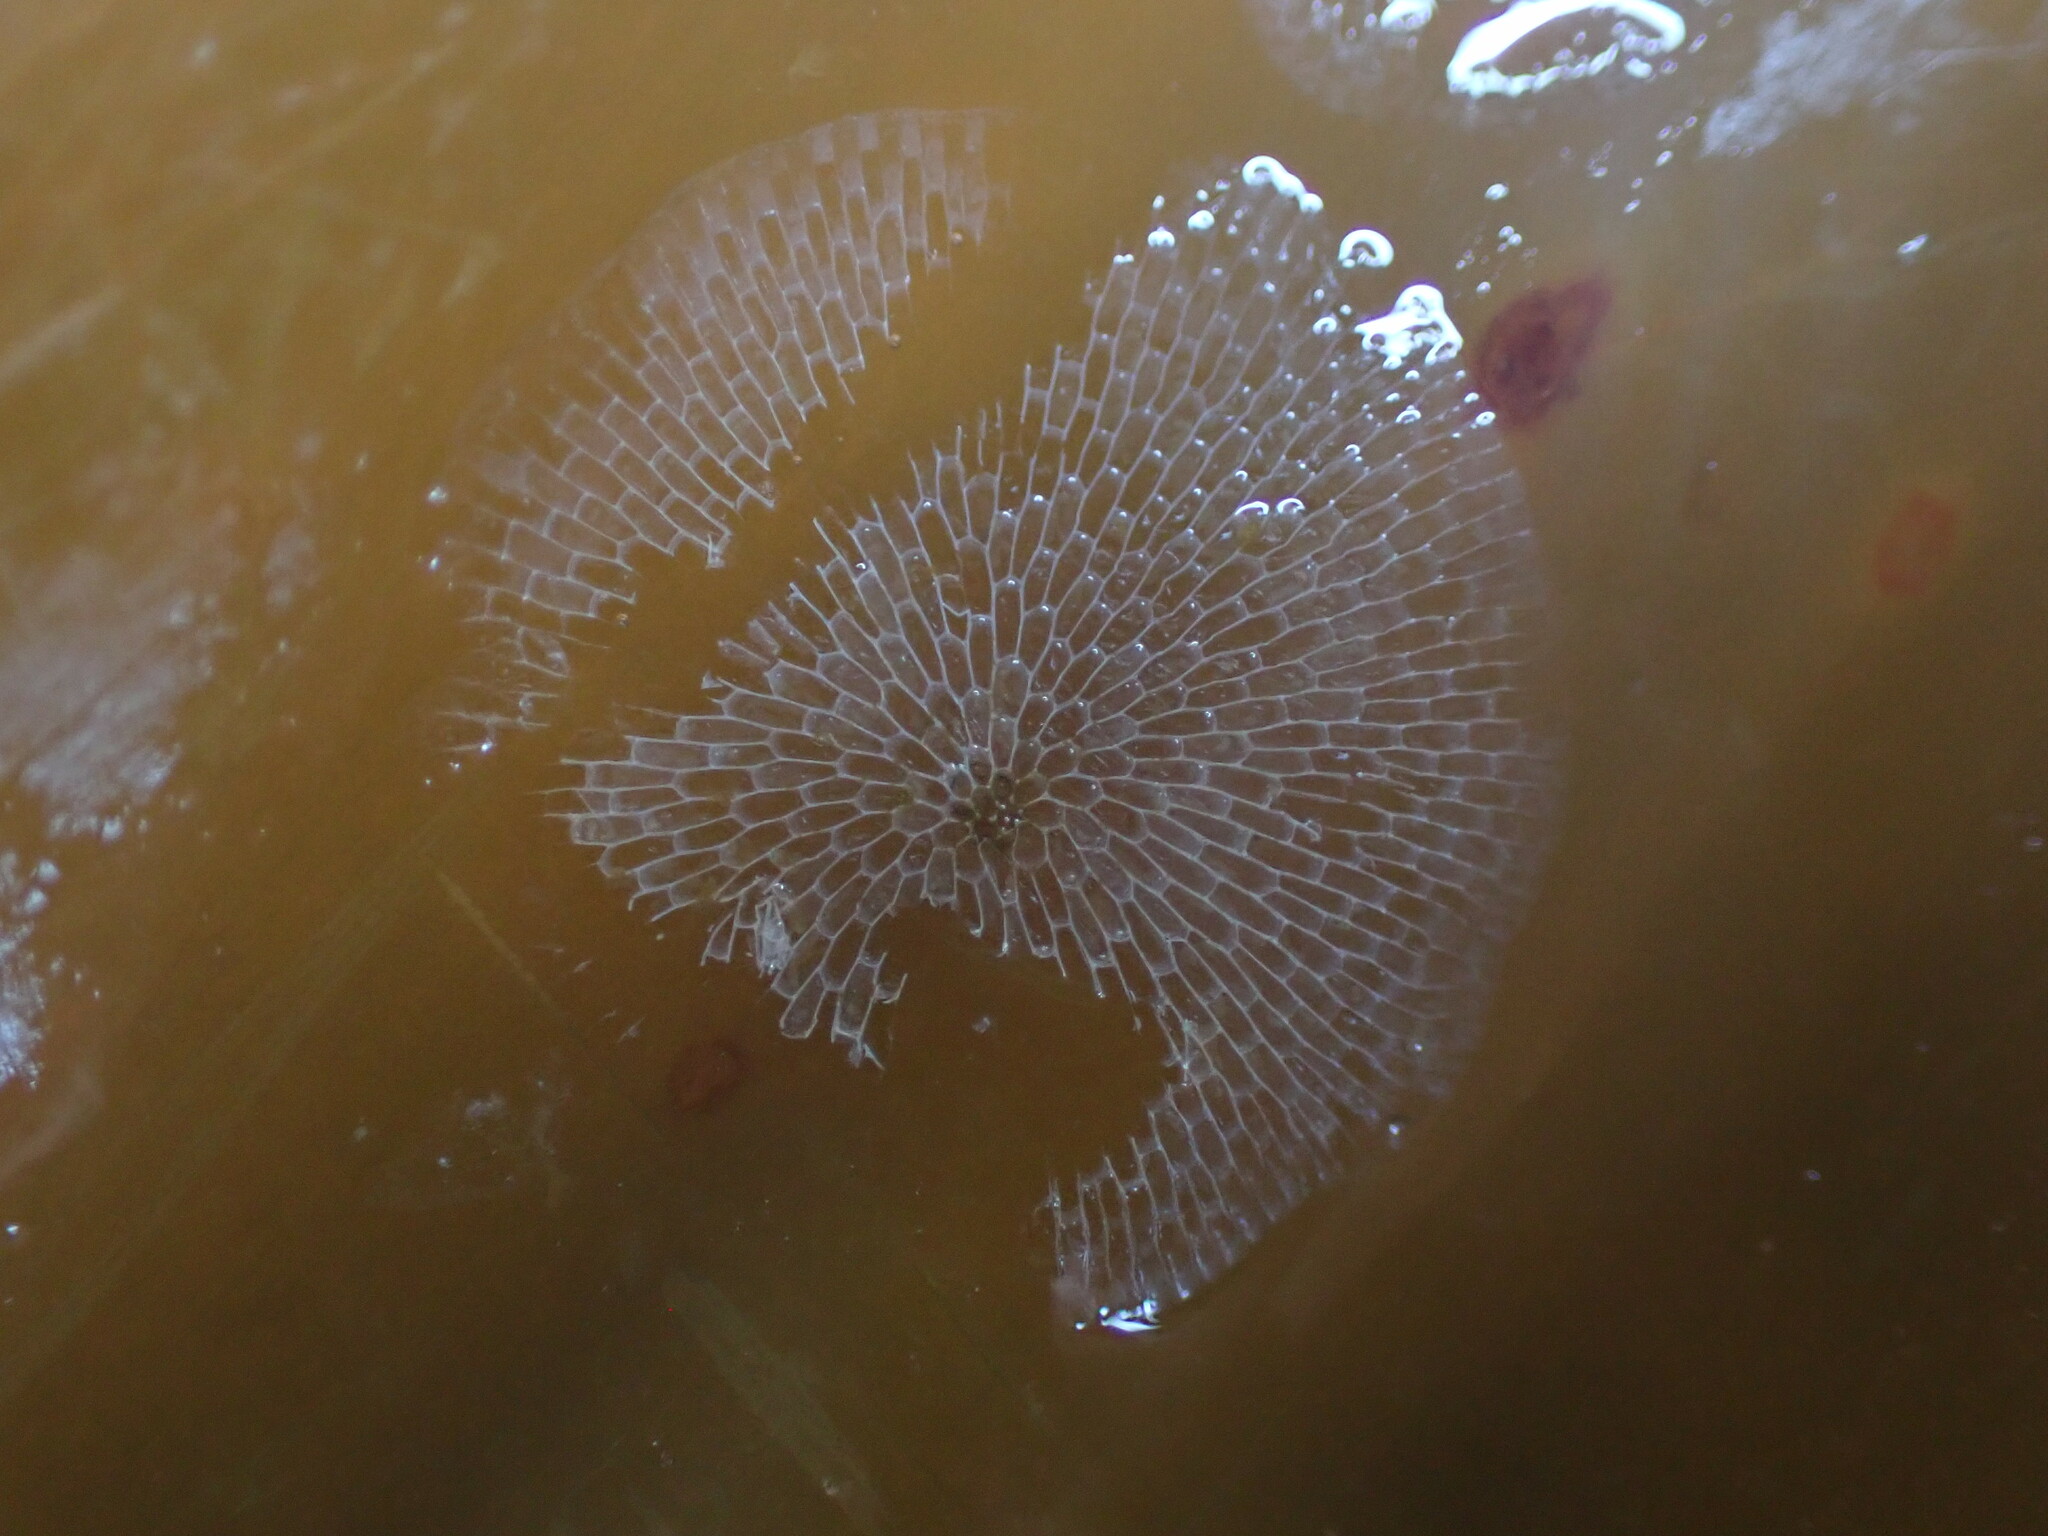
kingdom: Animalia
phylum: Bryozoa
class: Gymnolaemata
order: Cheilostomatida
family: Membraniporidae
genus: Membranipora
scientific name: Membranipora membranacea
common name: Sea mat
